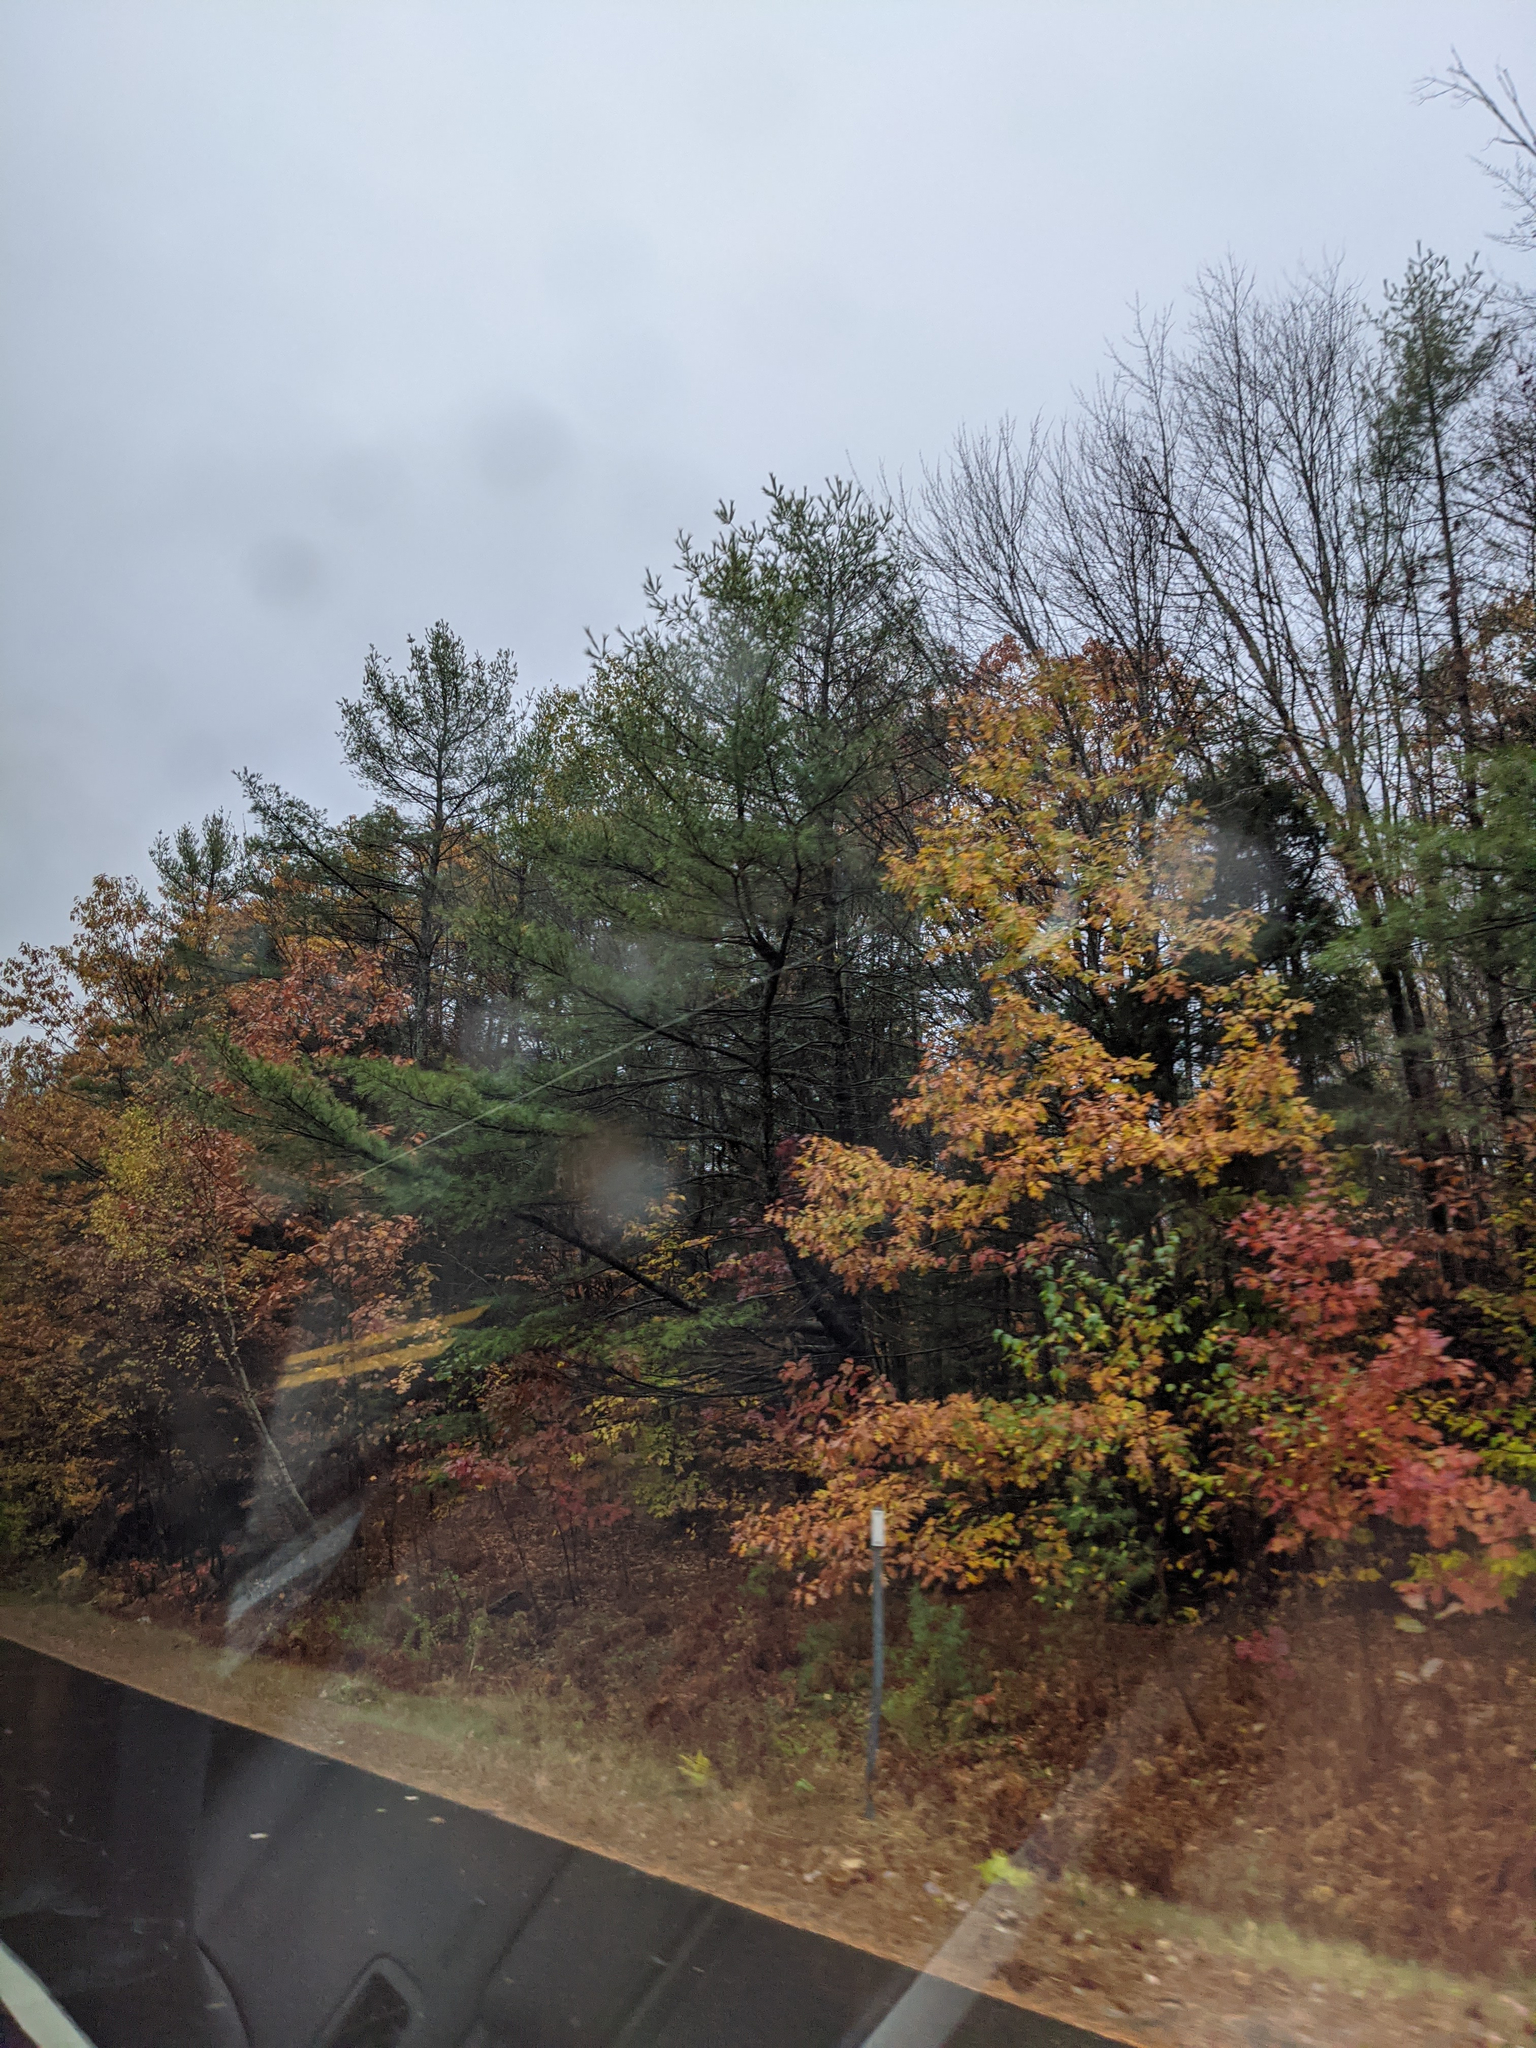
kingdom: Plantae
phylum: Tracheophyta
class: Pinopsida
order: Pinales
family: Pinaceae
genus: Pinus
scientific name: Pinus strobus
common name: Weymouth pine
